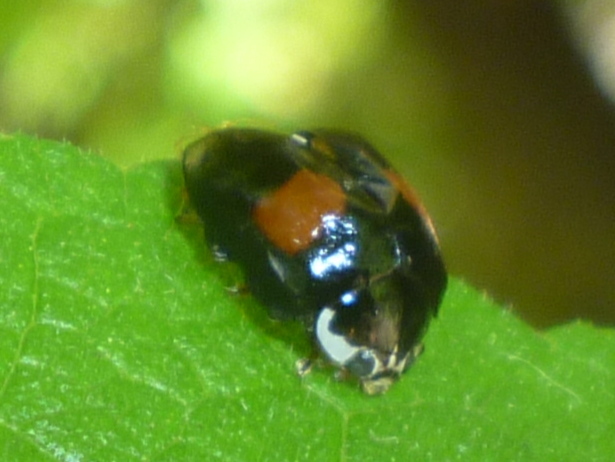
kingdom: Animalia
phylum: Arthropoda
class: Insecta
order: Coleoptera
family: Coccinellidae
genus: Olla
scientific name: Olla v-nigrum
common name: Ashy gray lady beetle
